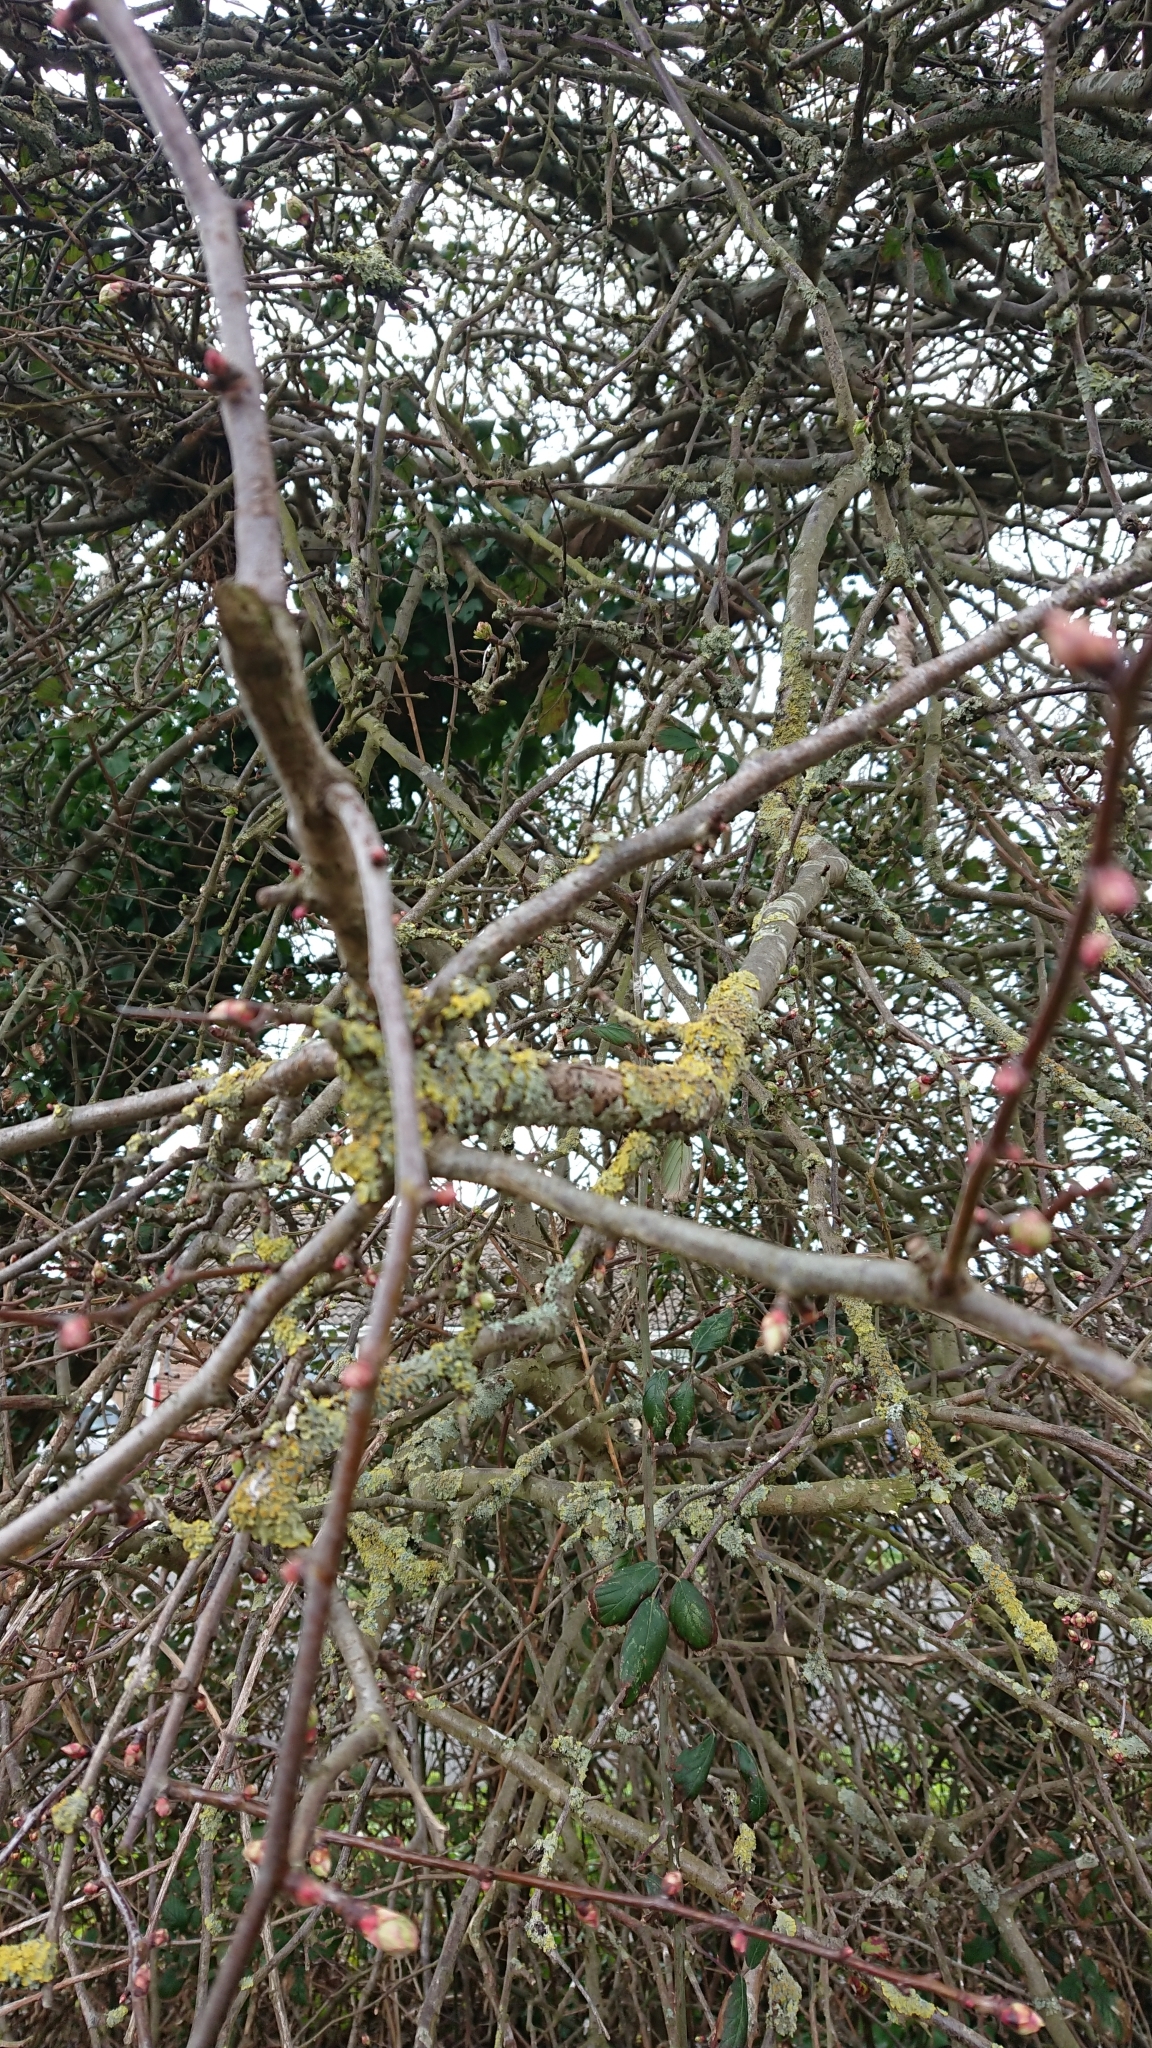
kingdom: Fungi
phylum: Ascomycota
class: Lecanoromycetes
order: Teloschistales
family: Teloschistaceae
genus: Xanthoria
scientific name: Xanthoria parietina
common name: Common orange lichen
